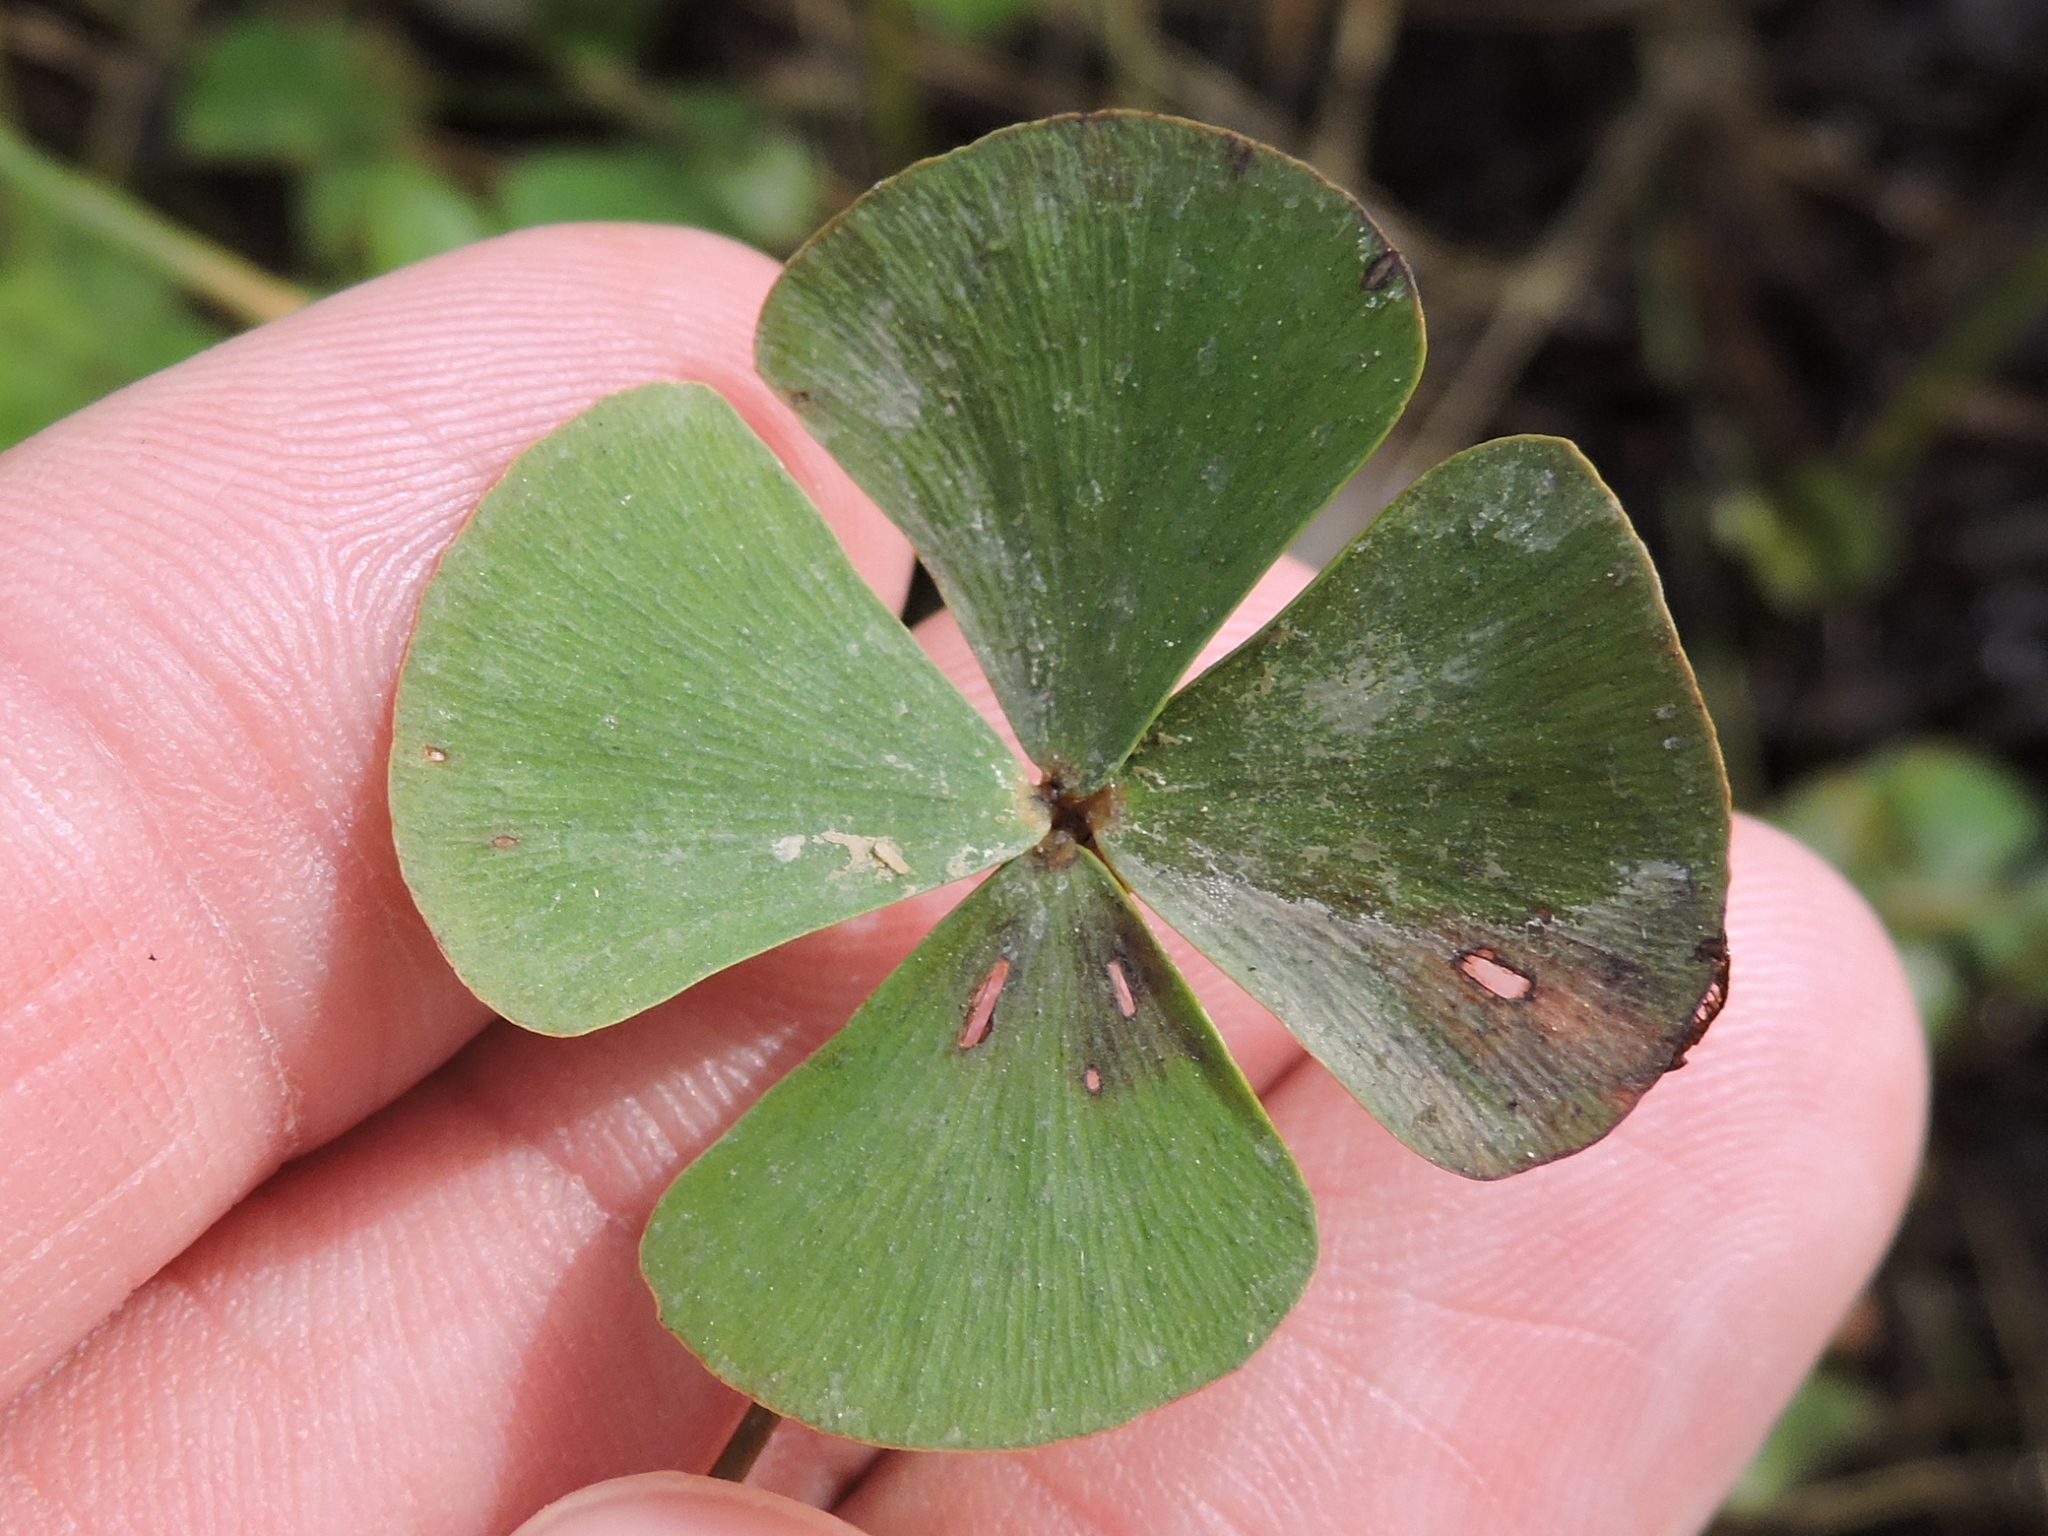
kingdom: Plantae
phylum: Tracheophyta
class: Polypodiopsida
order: Salviniales
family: Marsileaceae
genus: Marsilea
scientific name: Marsilea vestita
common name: Hooked-pepperwort
